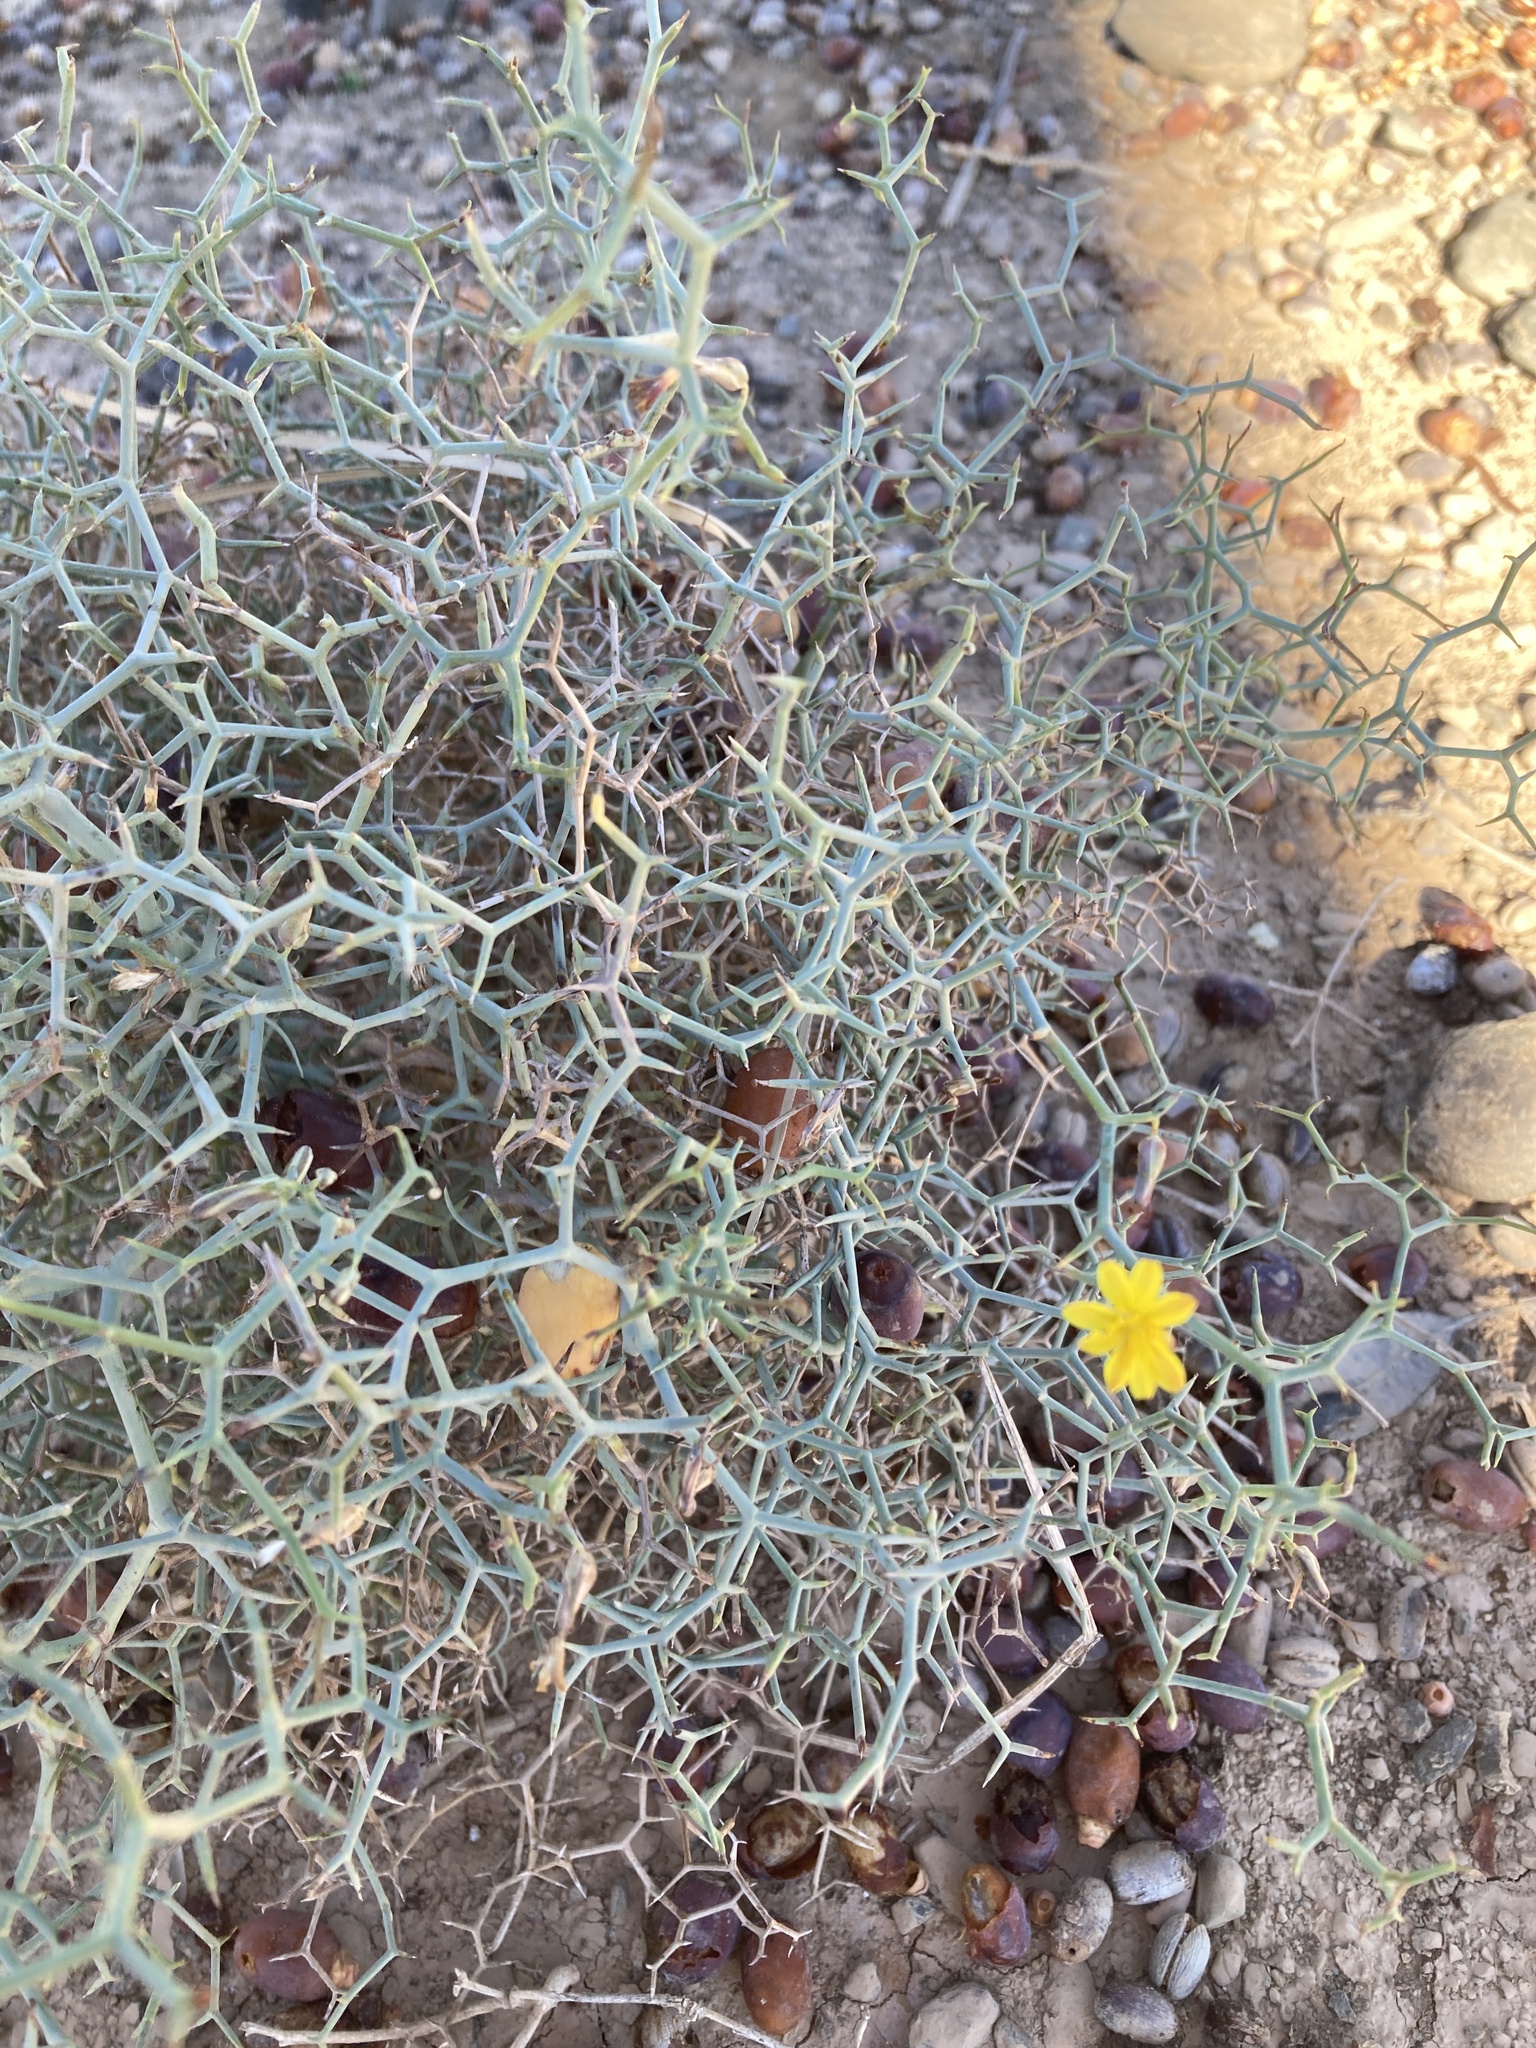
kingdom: Plantae
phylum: Tracheophyta
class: Magnoliopsida
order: Asterales
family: Asteraceae
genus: Launaea
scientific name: Launaea arborescens
